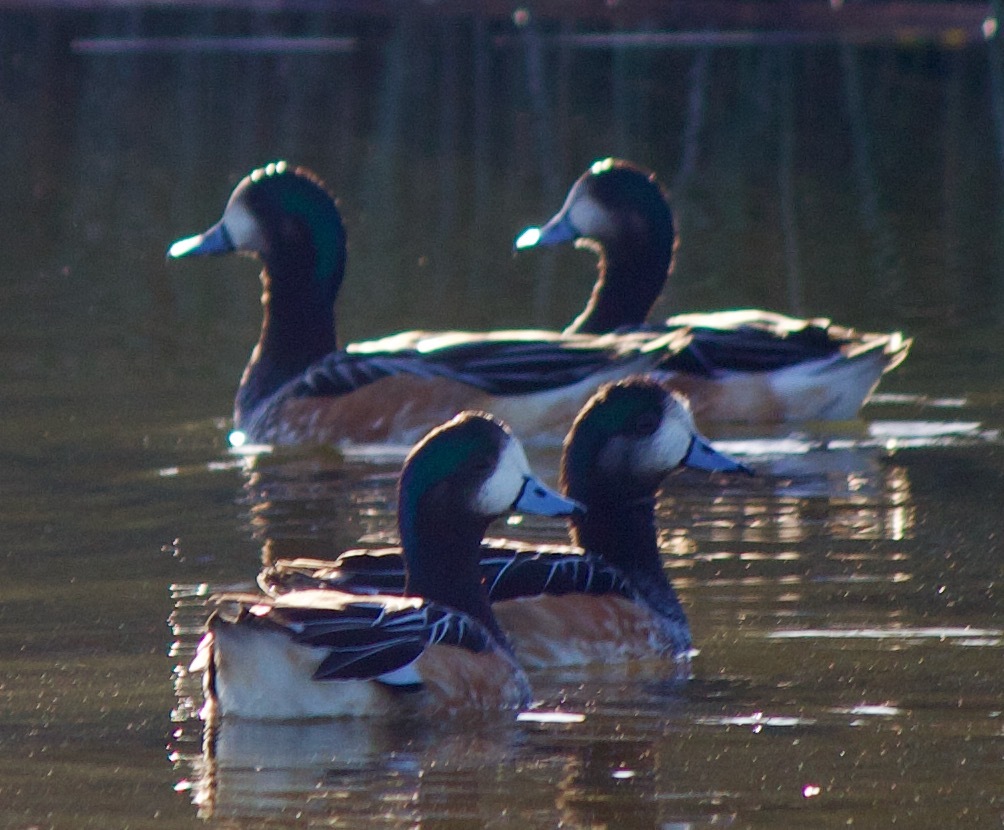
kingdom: Animalia
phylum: Chordata
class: Aves
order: Anseriformes
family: Anatidae
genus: Mareca
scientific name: Mareca sibilatrix
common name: Chiloe wigeon
